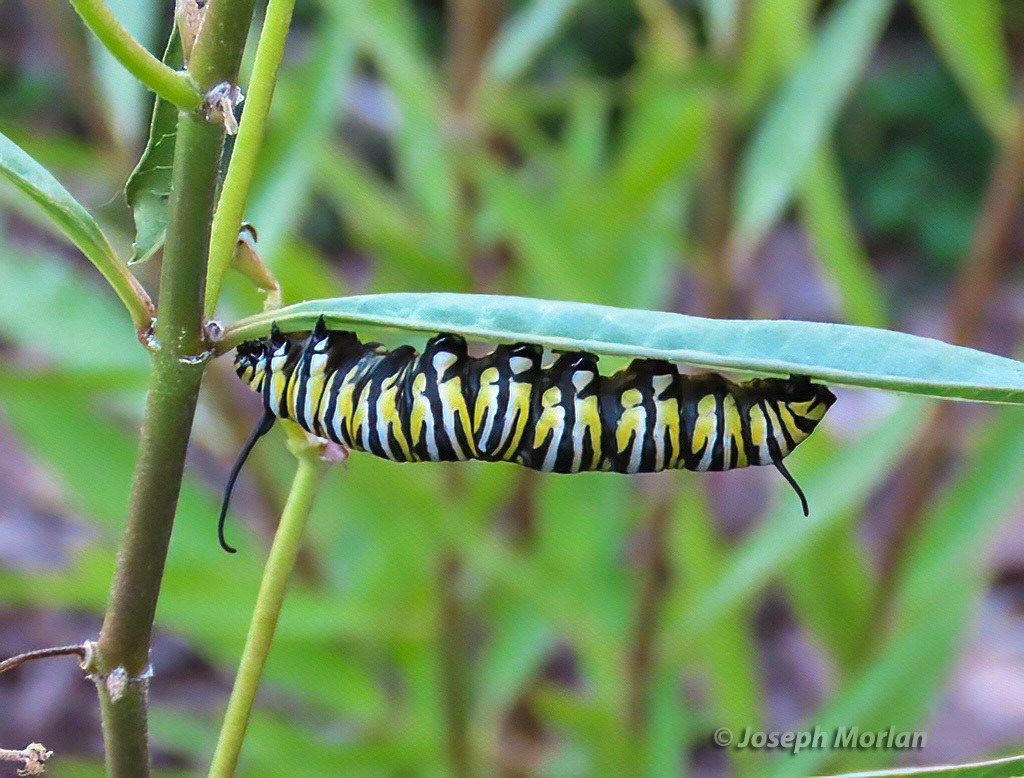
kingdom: Animalia
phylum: Arthropoda
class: Insecta
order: Lepidoptera
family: Nymphalidae
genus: Danaus
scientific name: Danaus plexippus
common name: Monarch
